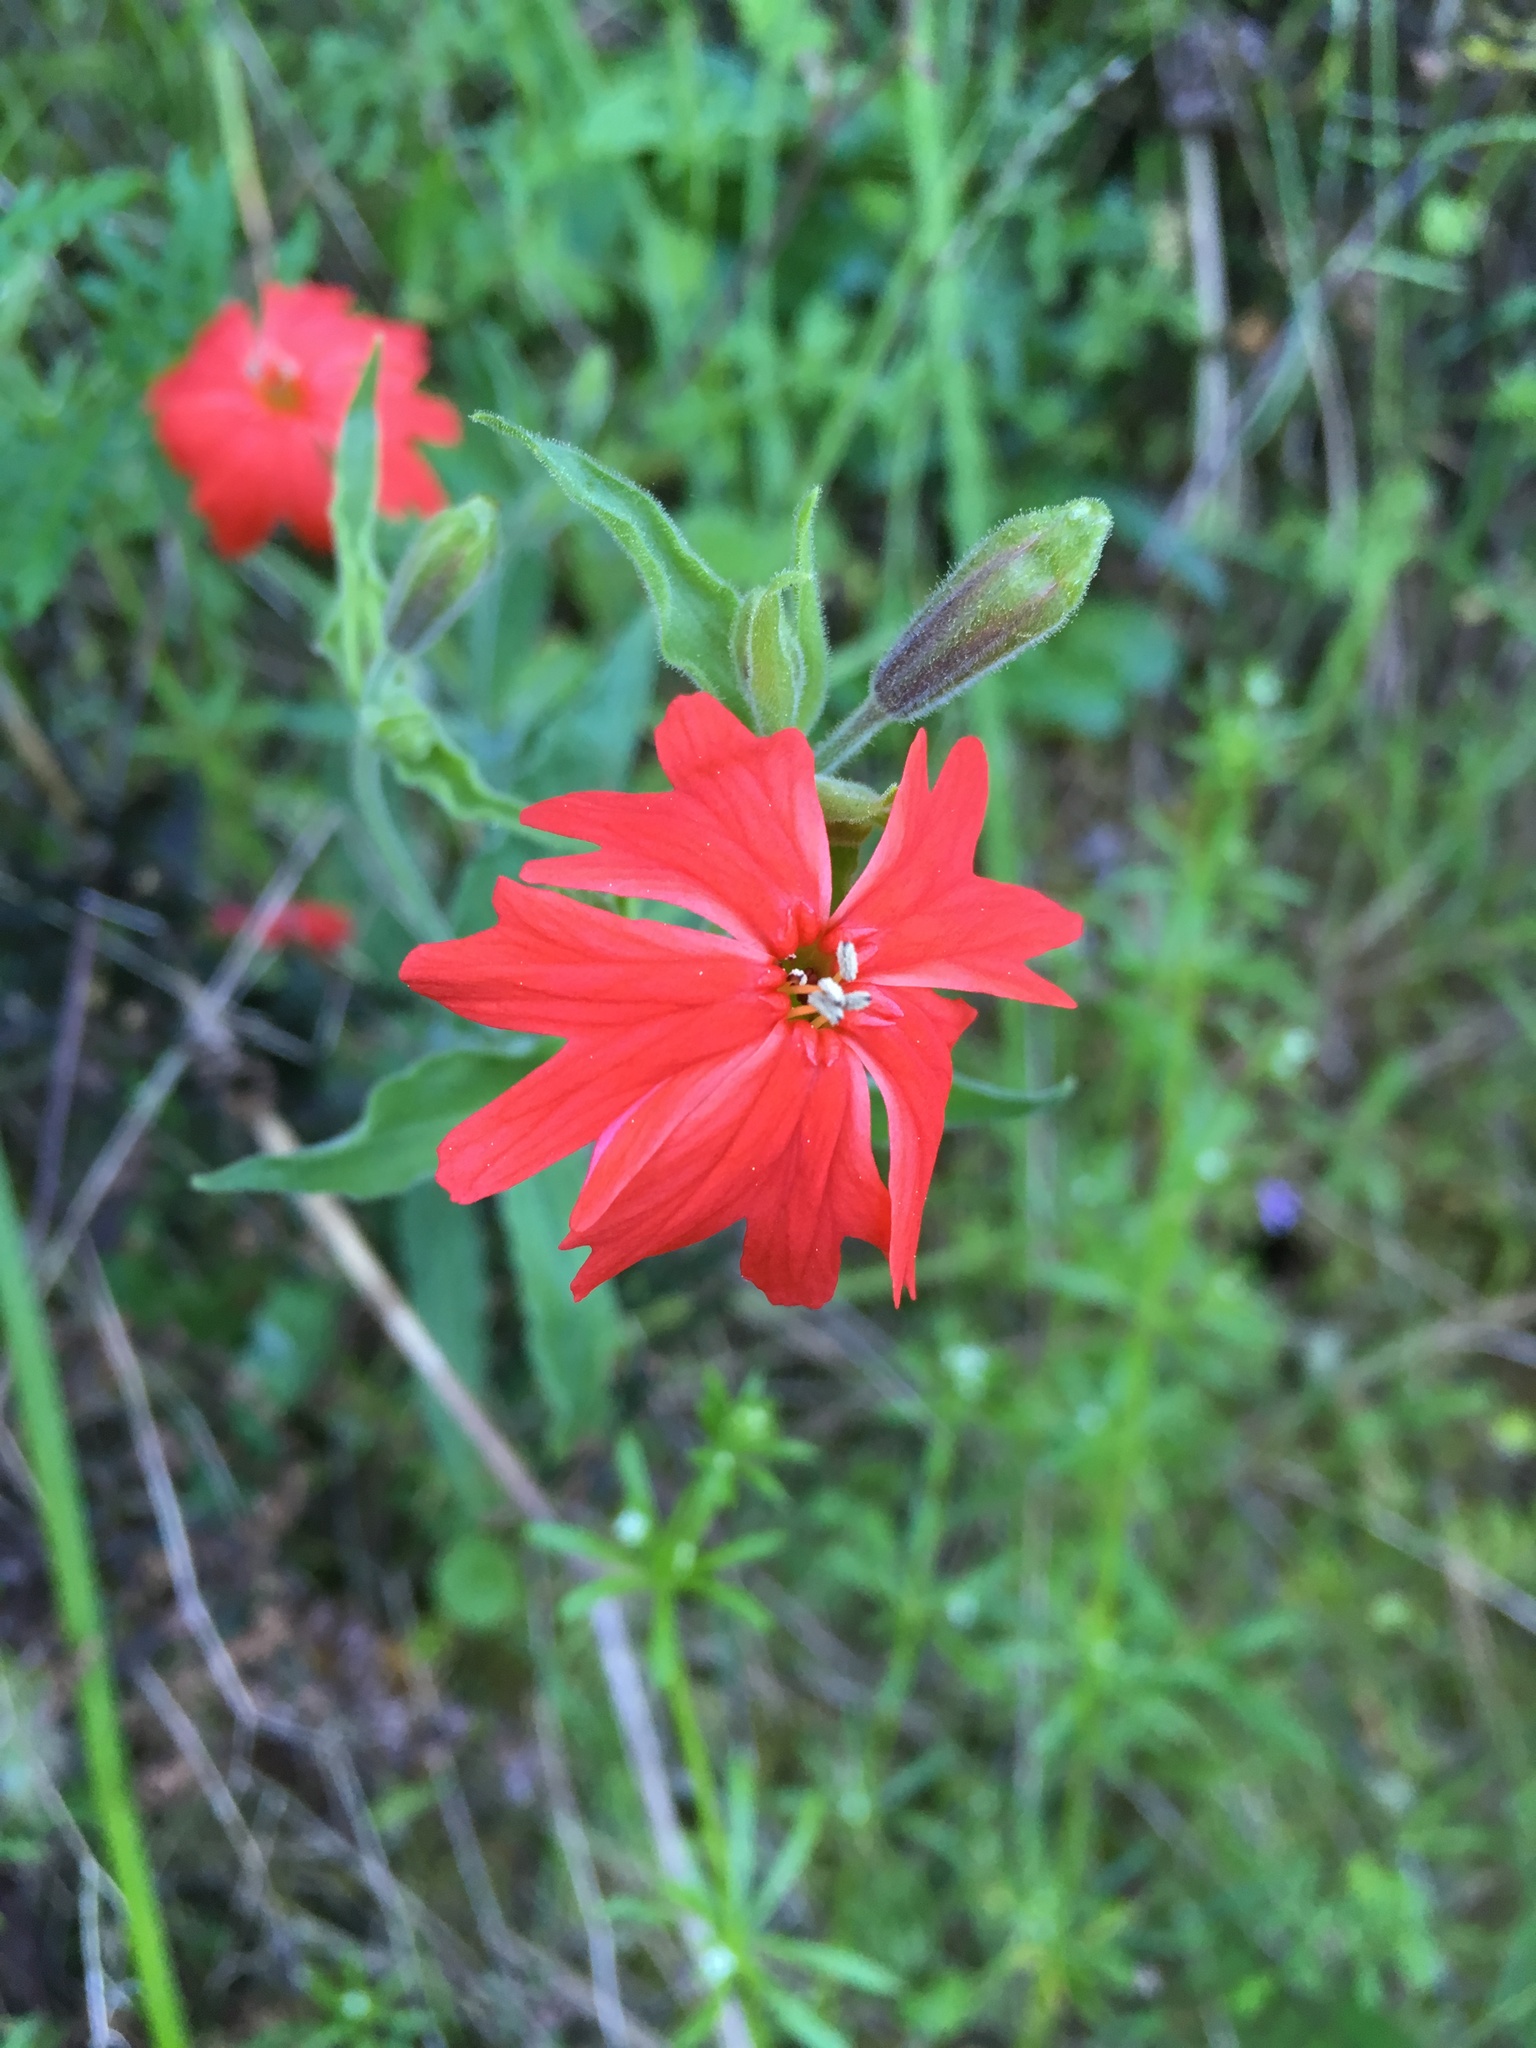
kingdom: Plantae
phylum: Tracheophyta
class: Magnoliopsida
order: Caryophyllales
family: Caryophyllaceae
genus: Silene
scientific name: Silene laciniata
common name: Indian-pink
